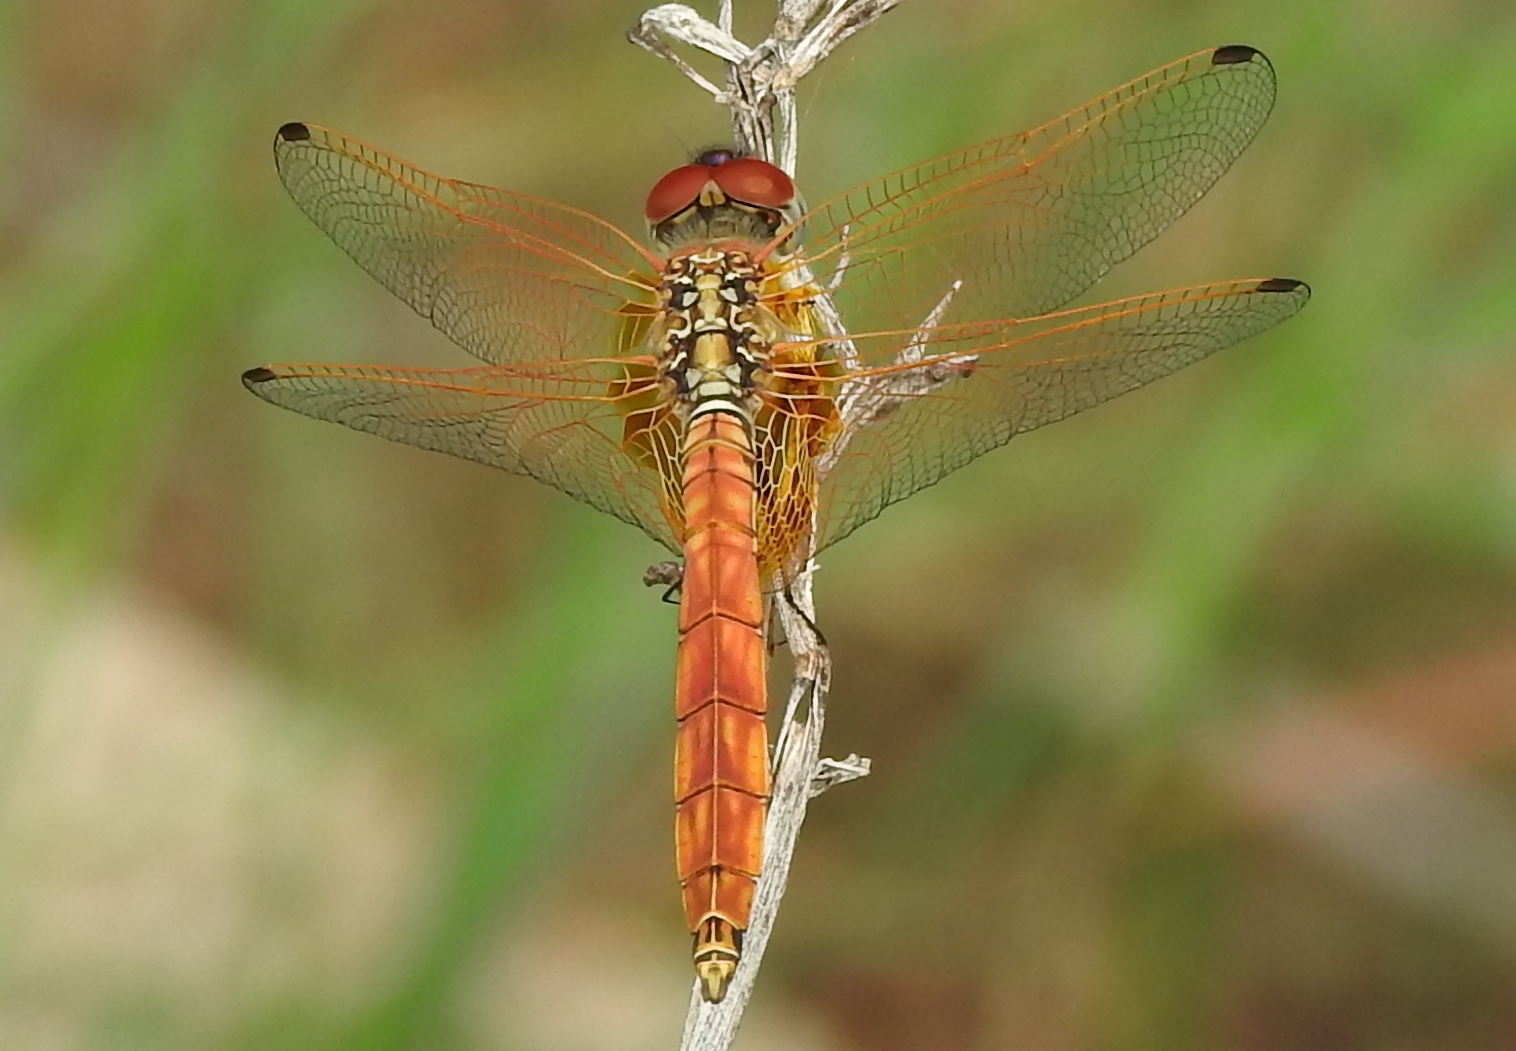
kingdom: Animalia
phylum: Arthropoda
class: Insecta
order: Odonata
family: Libellulidae
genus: Trithemis
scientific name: Trithemis aurora
